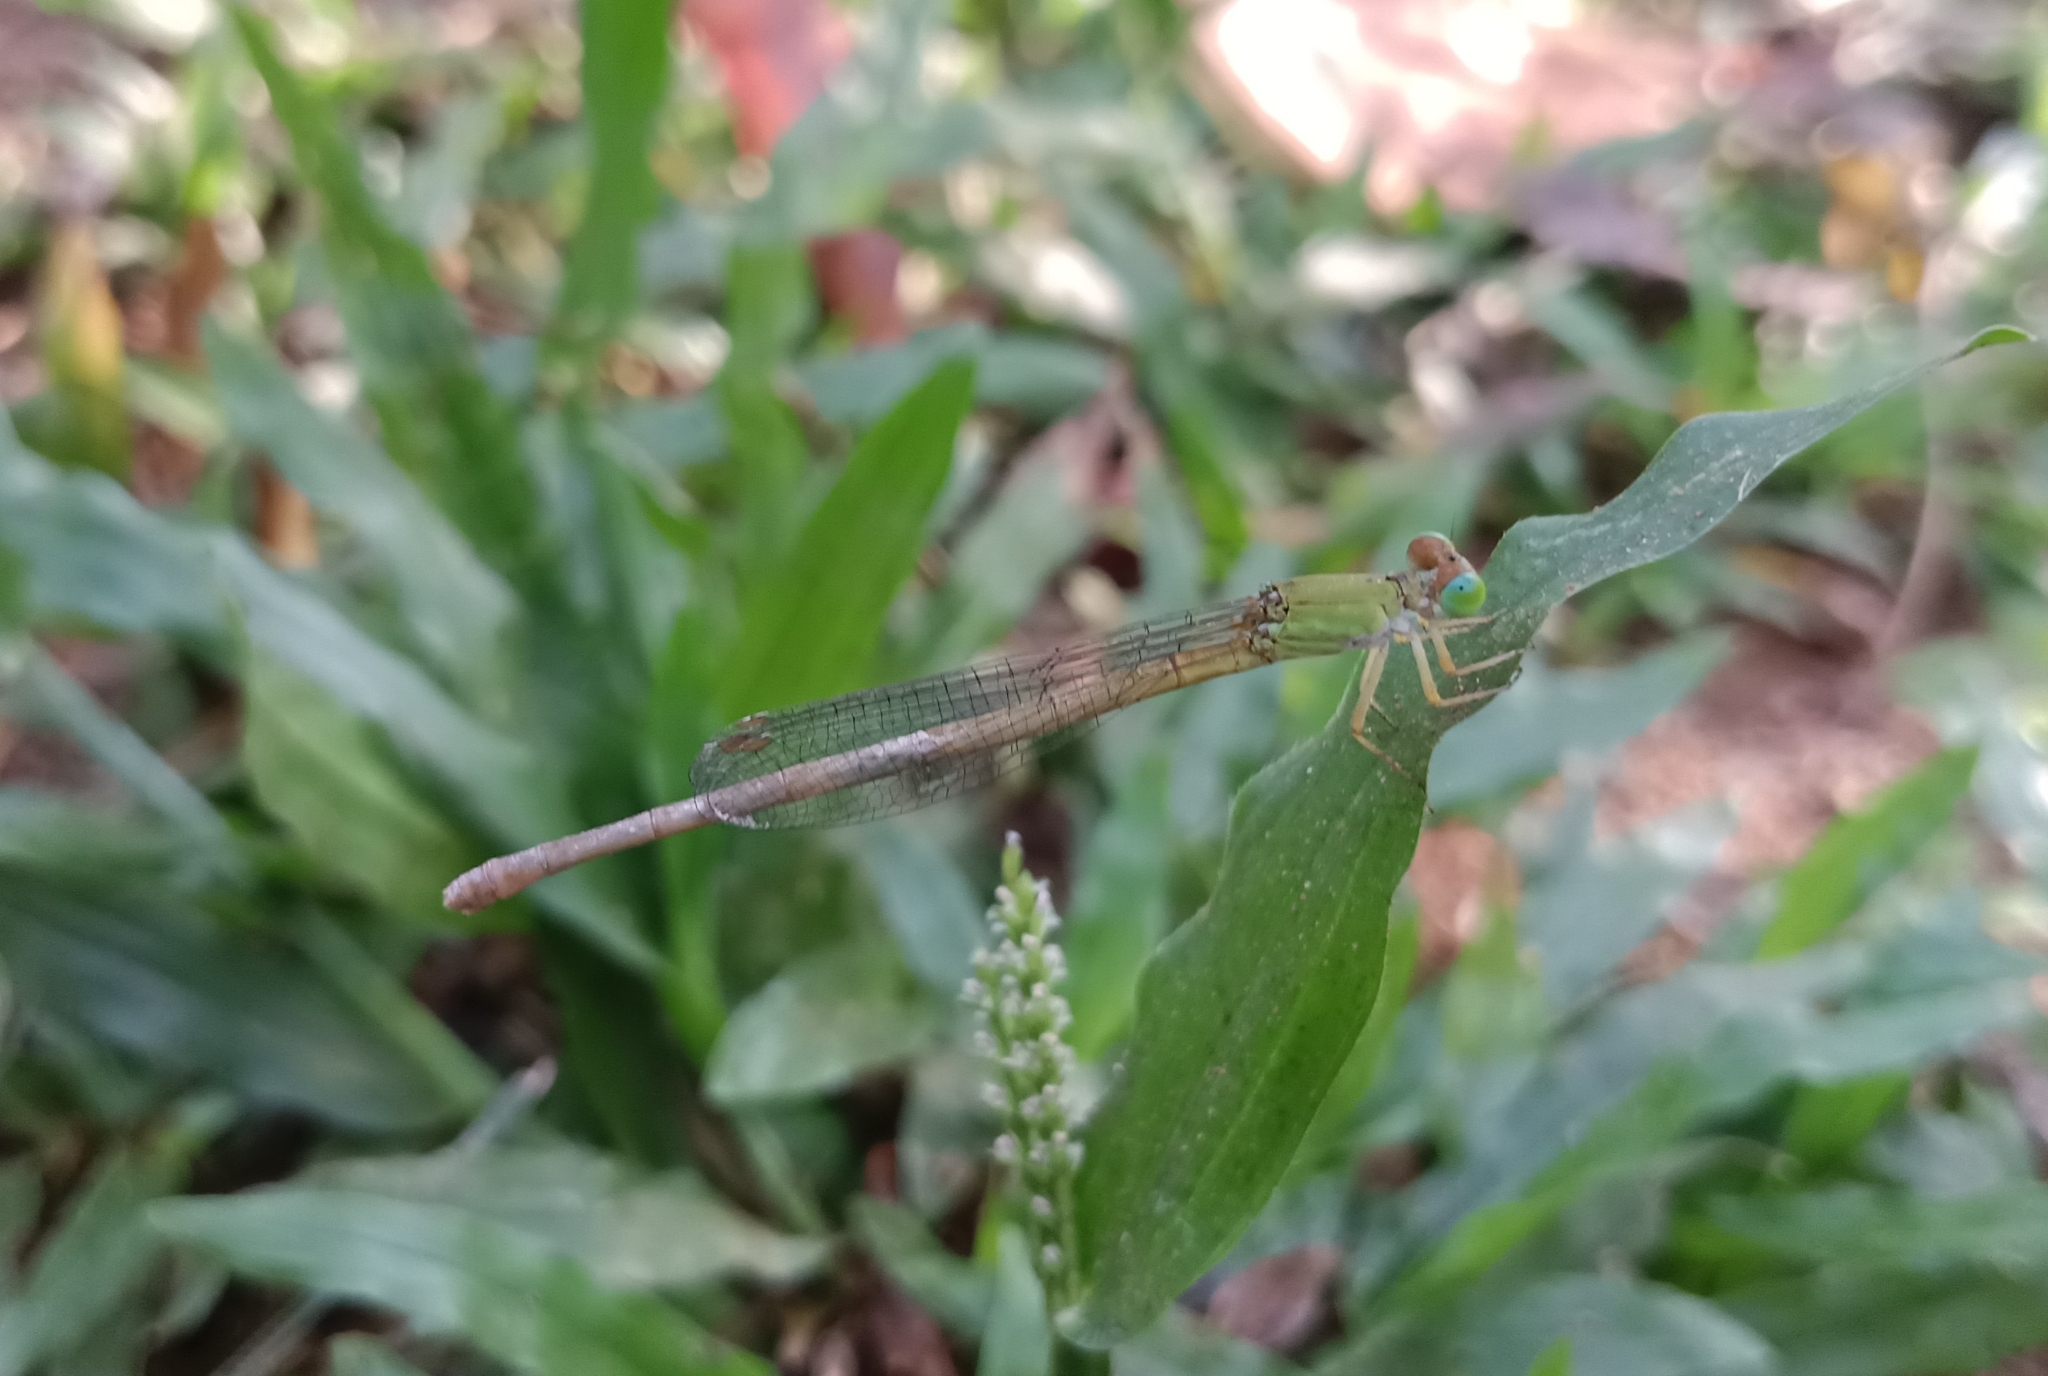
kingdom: Animalia
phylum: Arthropoda
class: Insecta
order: Odonata
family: Coenagrionidae
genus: Ceriagrion
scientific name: Ceriagrion coromandelianum
